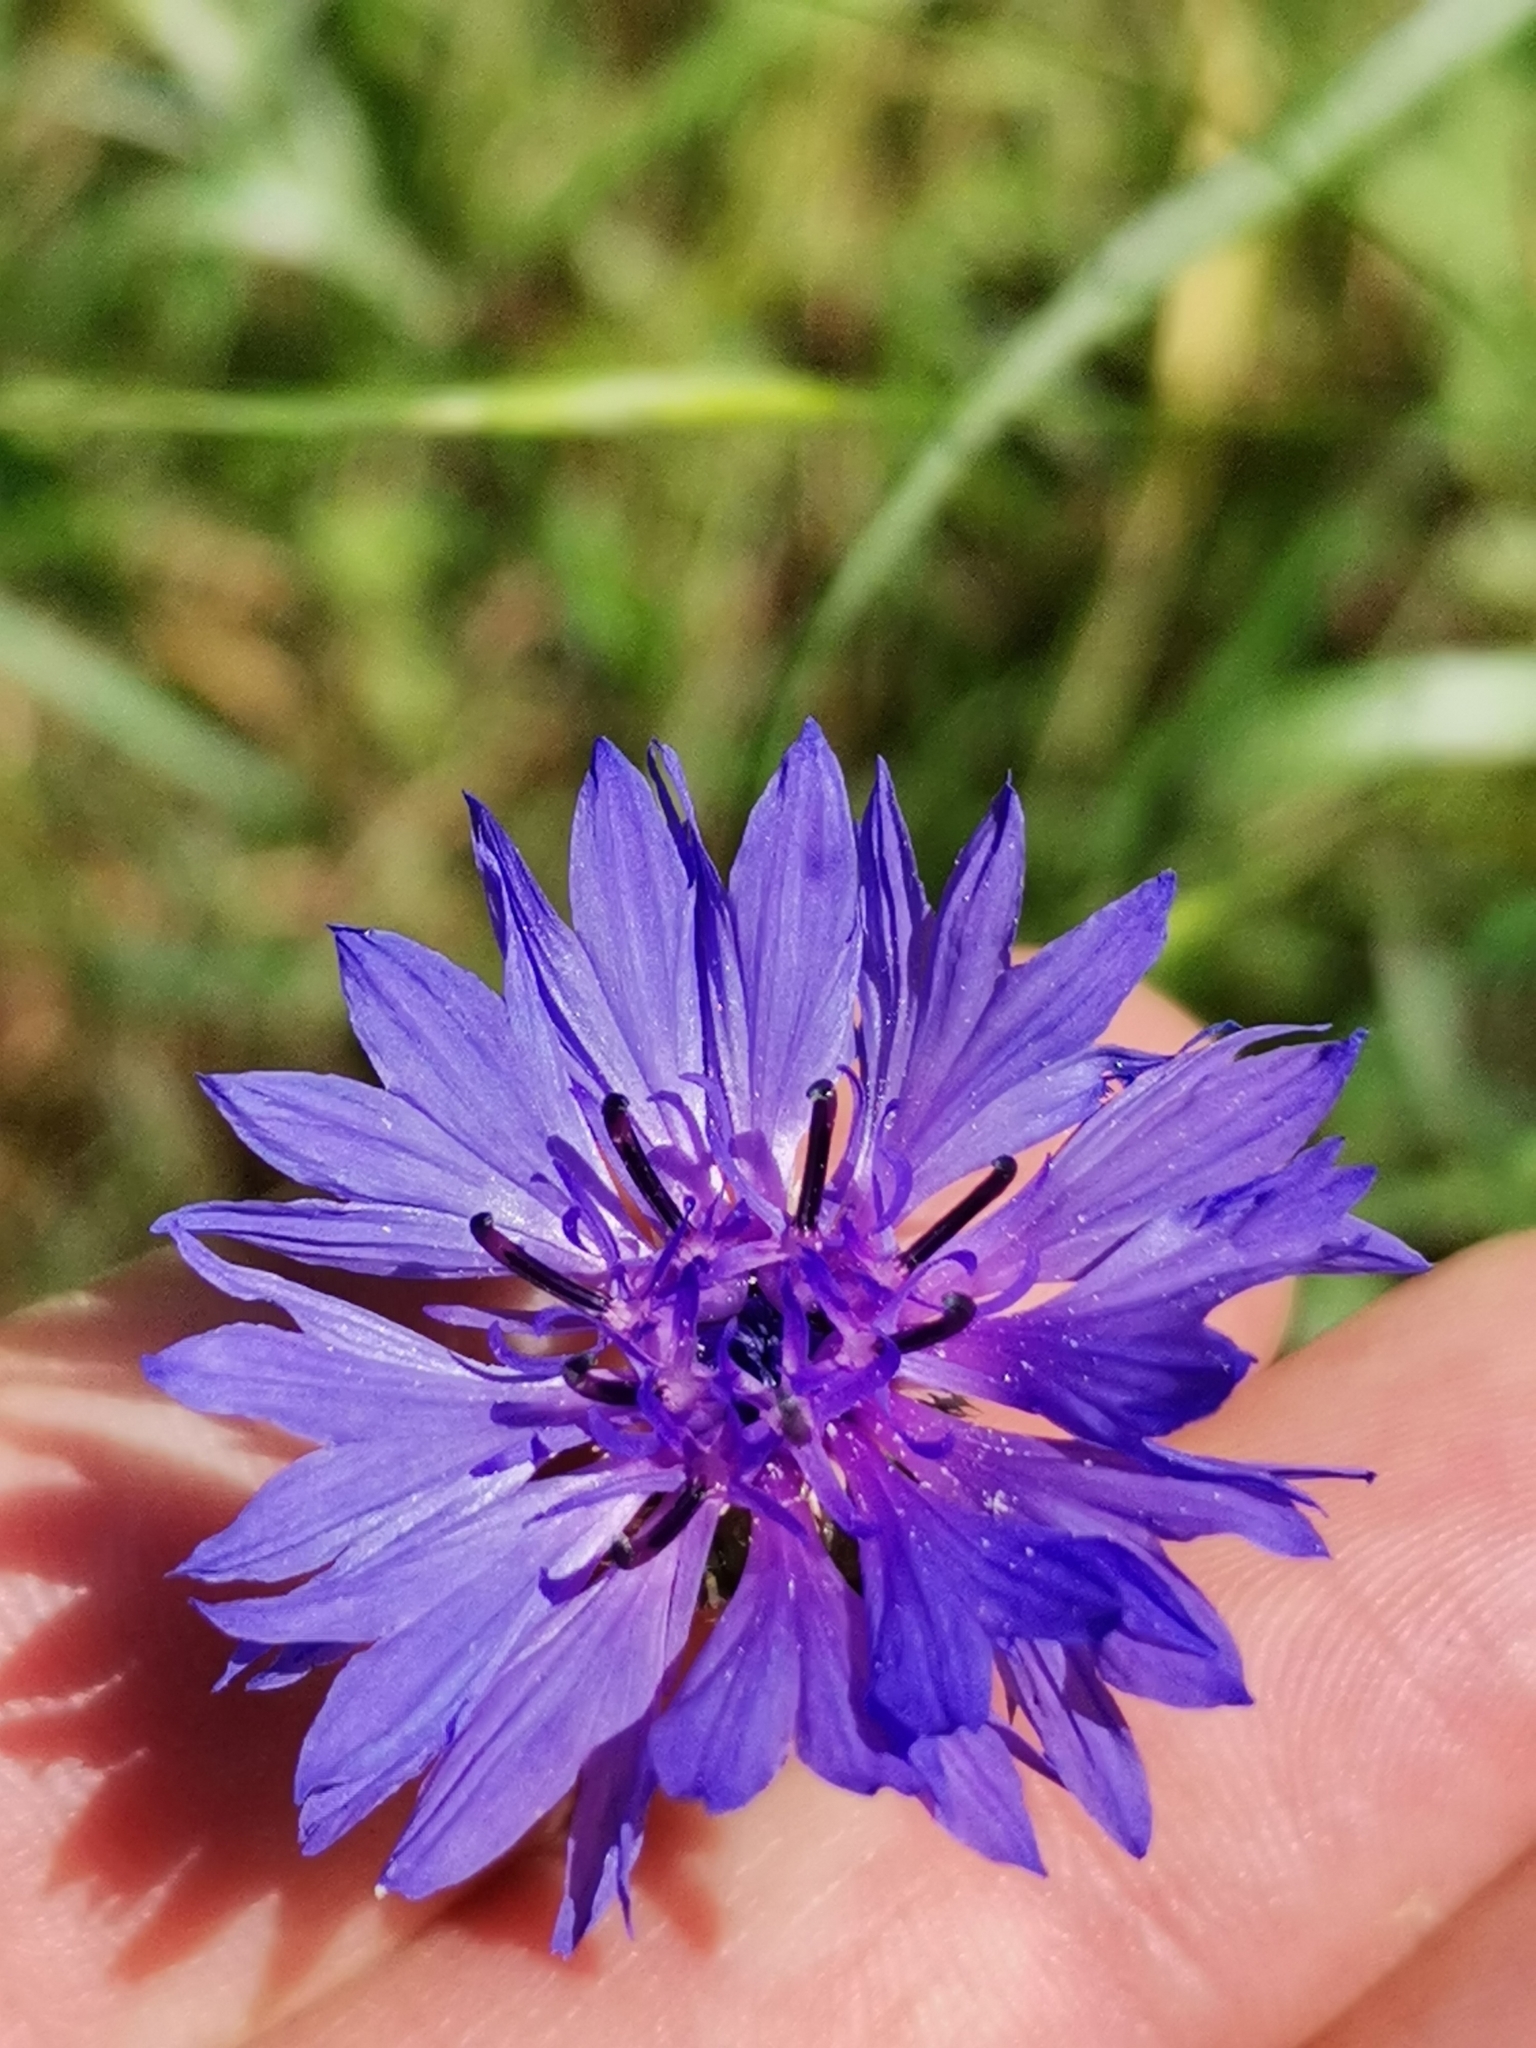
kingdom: Plantae
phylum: Tracheophyta
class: Magnoliopsida
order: Asterales
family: Asteraceae
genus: Centaurea
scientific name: Centaurea cyanus
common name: Cornflower
